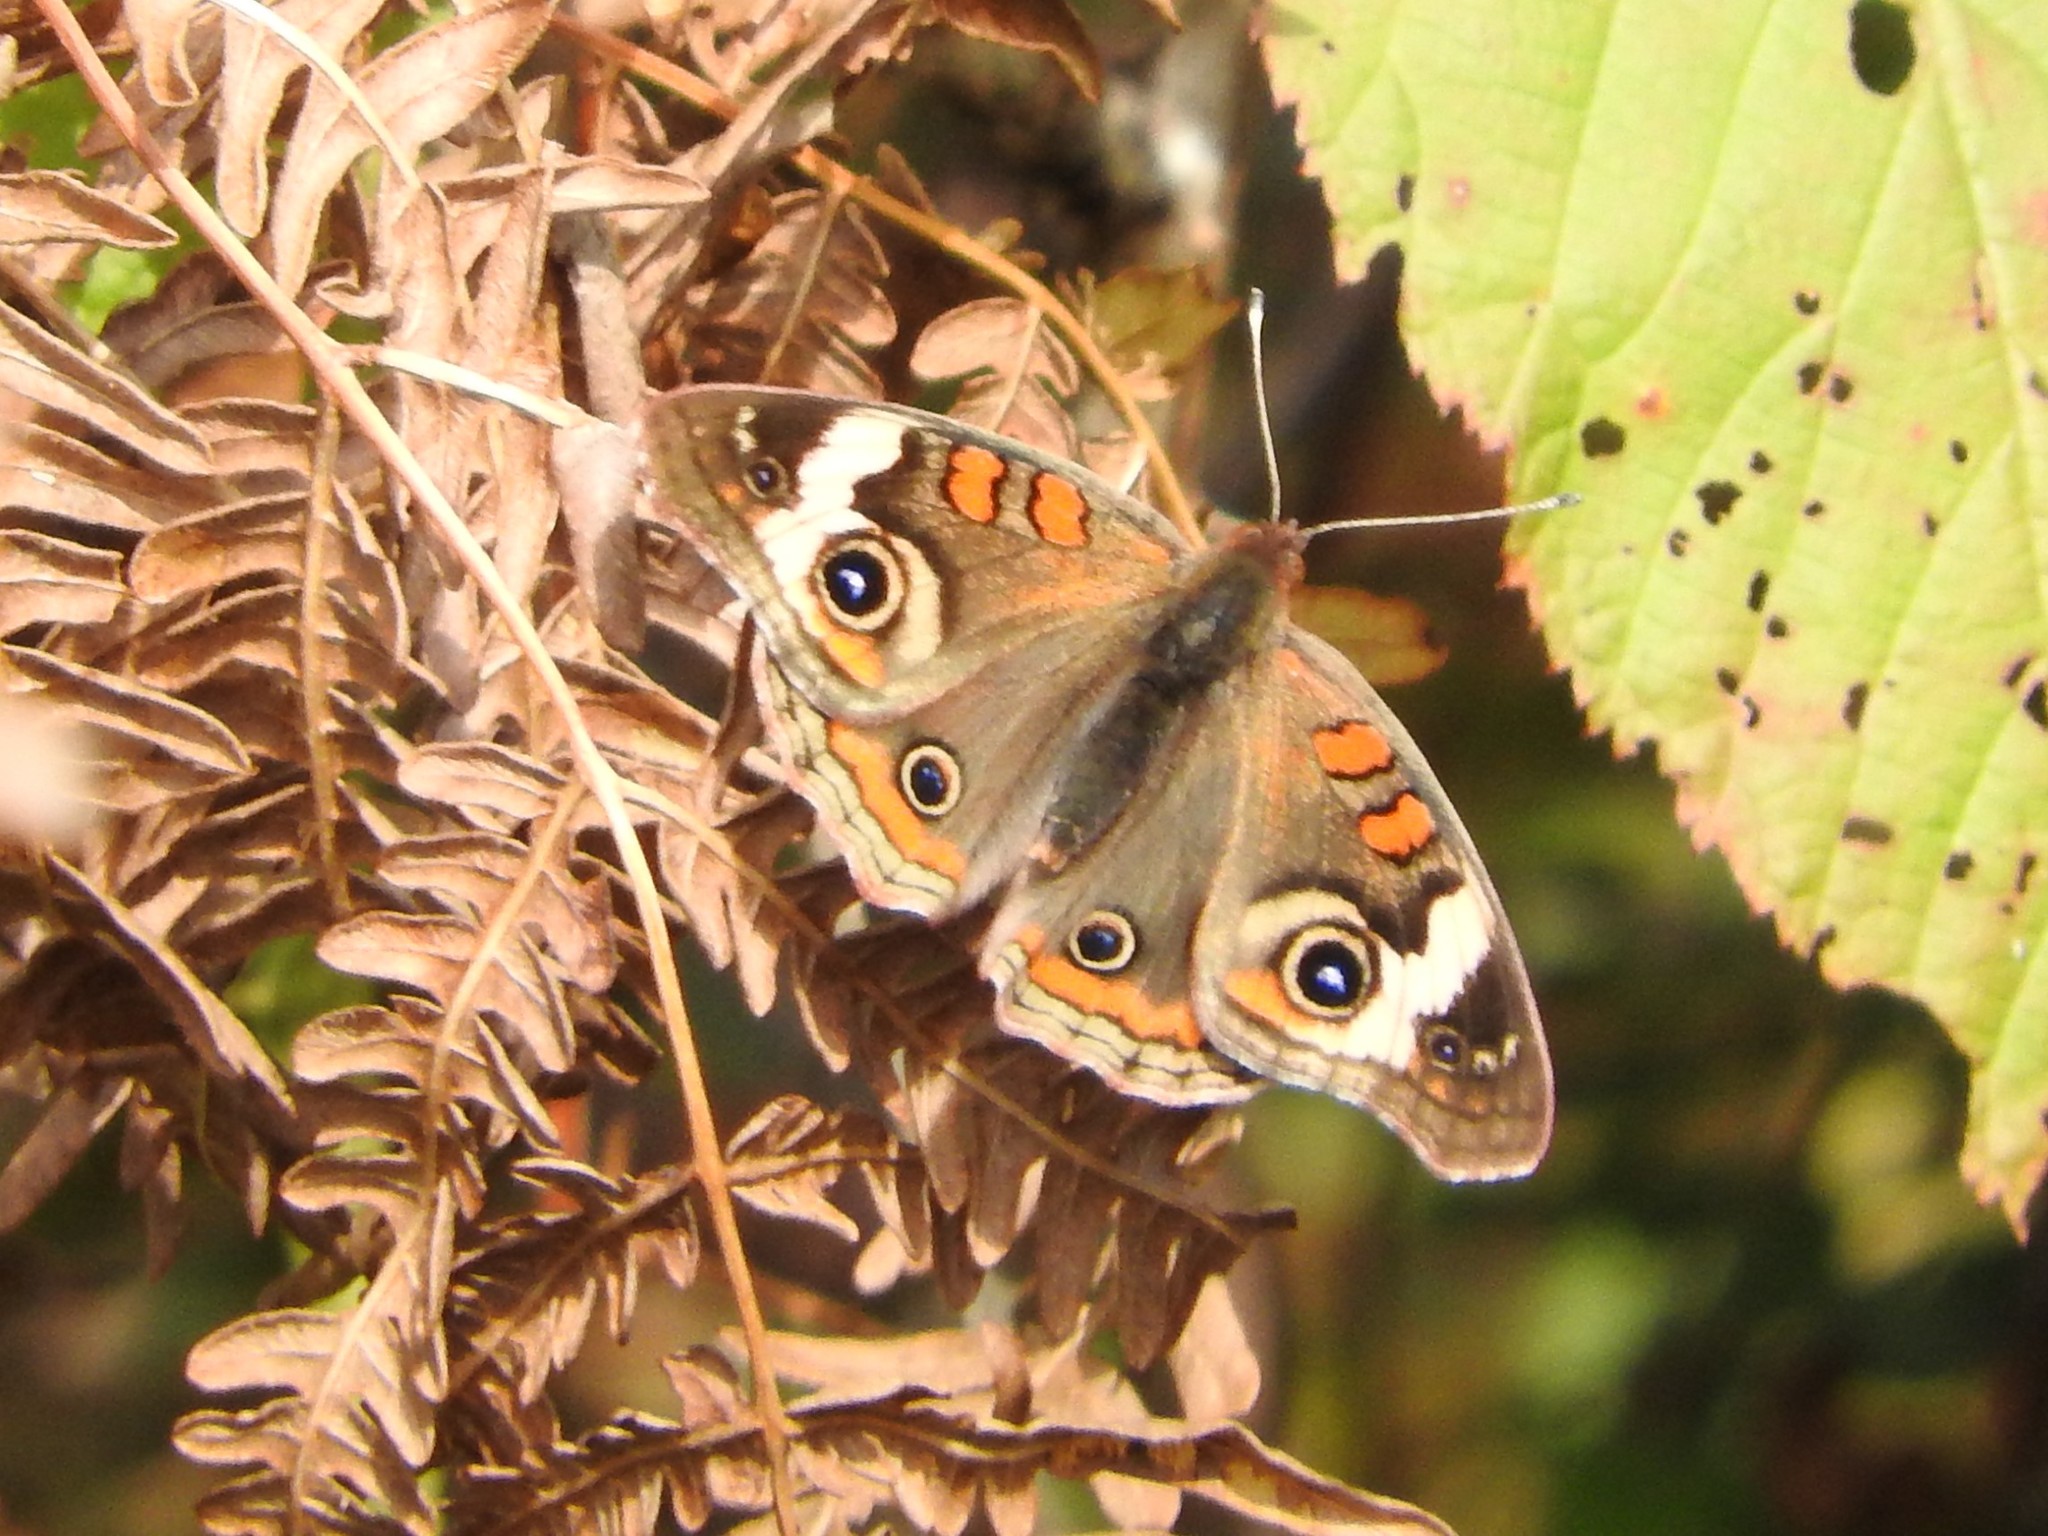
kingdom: Animalia
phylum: Arthropoda
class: Insecta
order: Lepidoptera
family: Nymphalidae
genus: Junonia
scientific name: Junonia coenia
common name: Common buckeye
